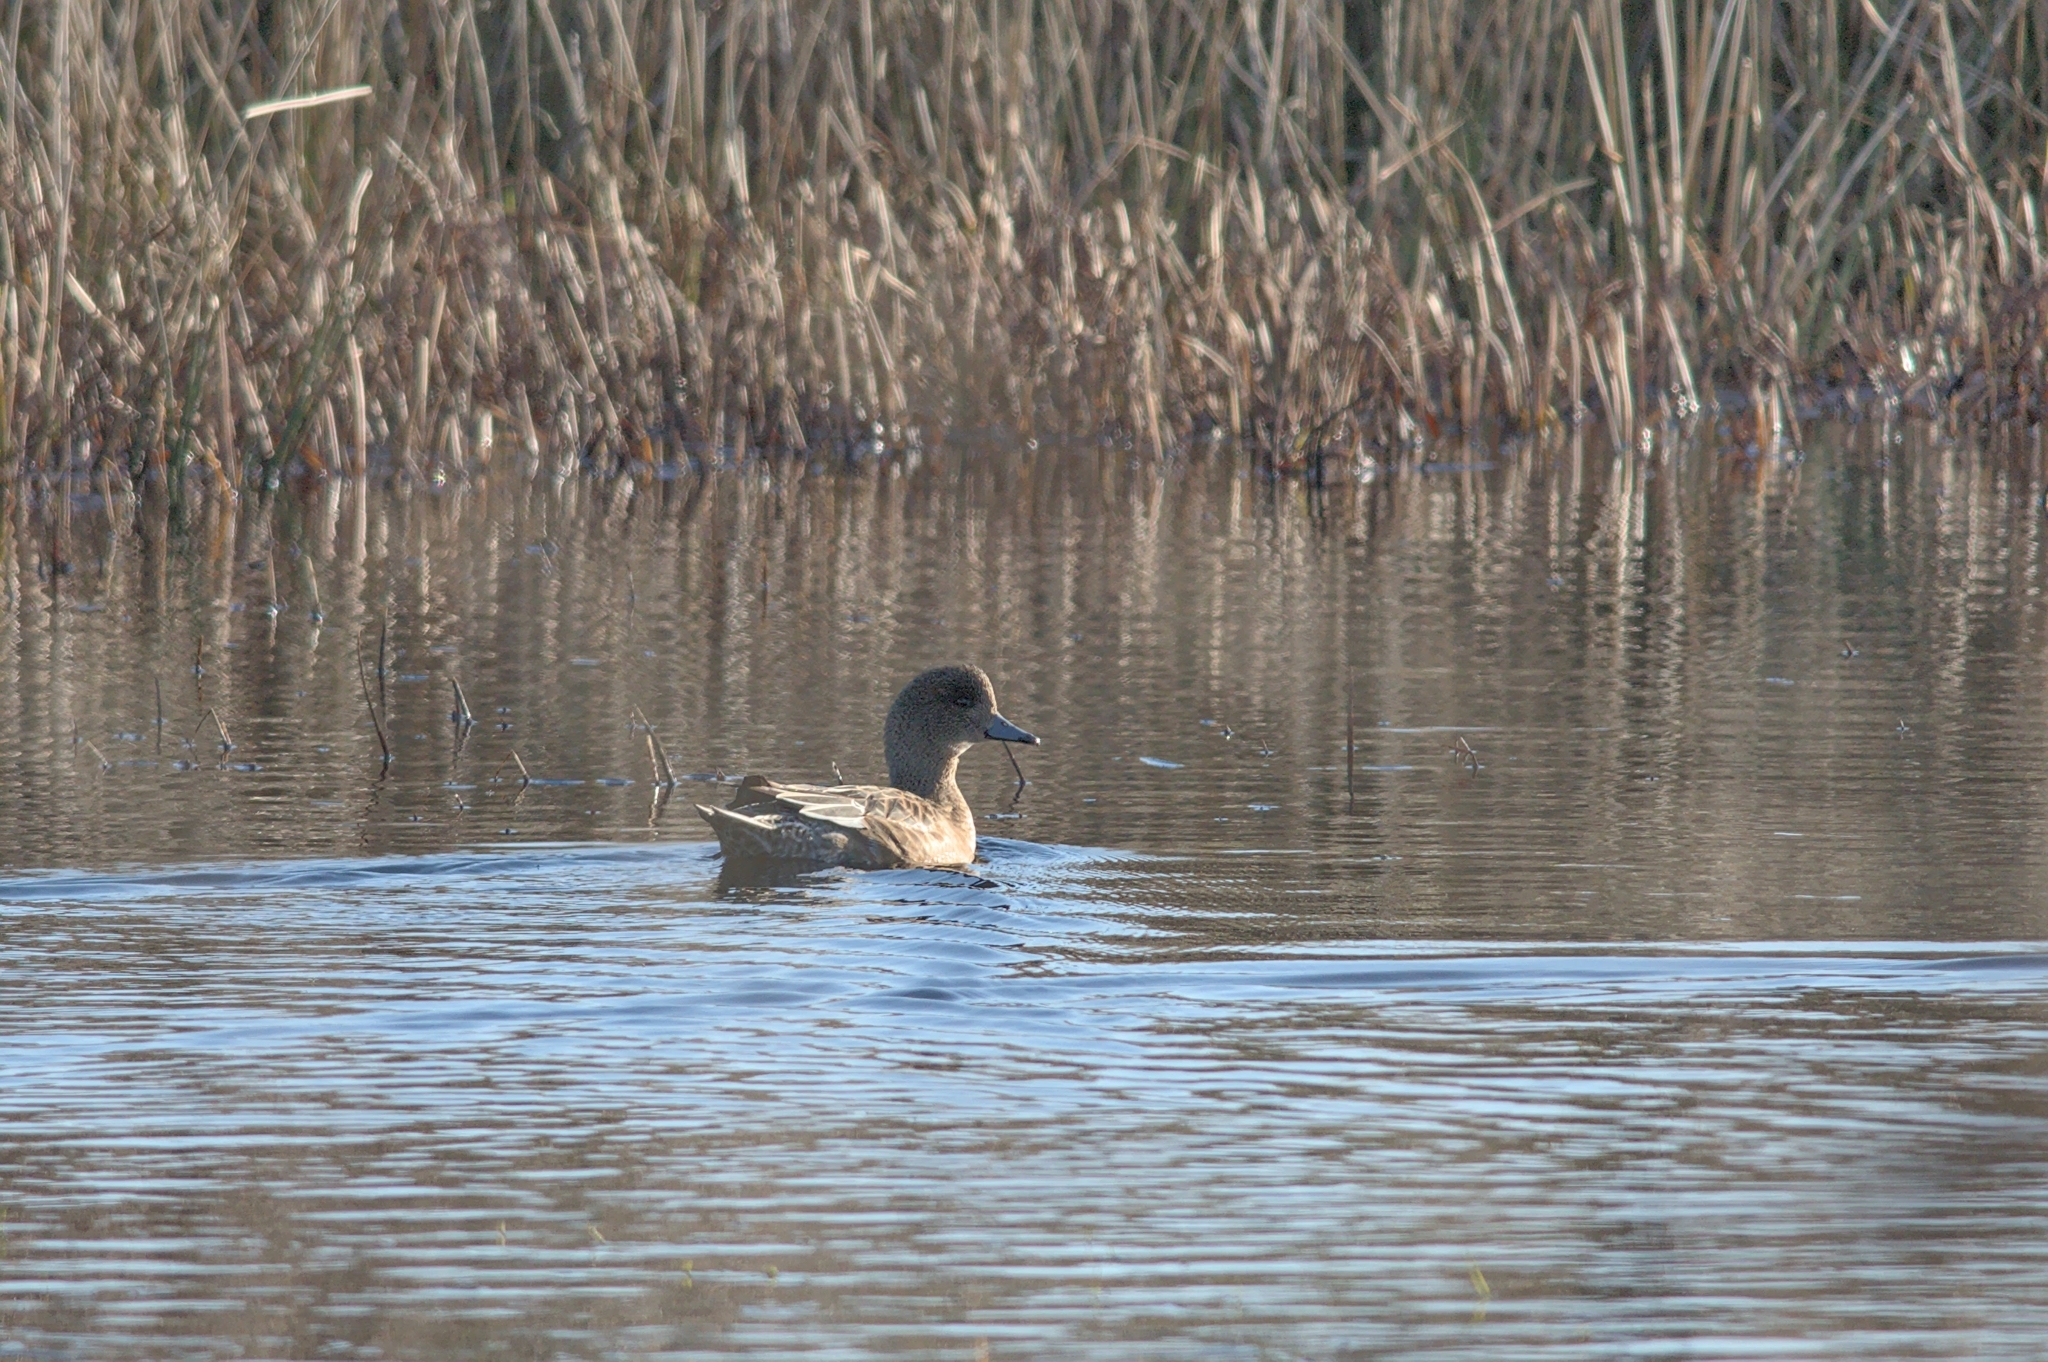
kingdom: Animalia
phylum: Chordata
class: Aves
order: Anseriformes
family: Anatidae
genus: Mareca
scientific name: Mareca penelope
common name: Eurasian wigeon
